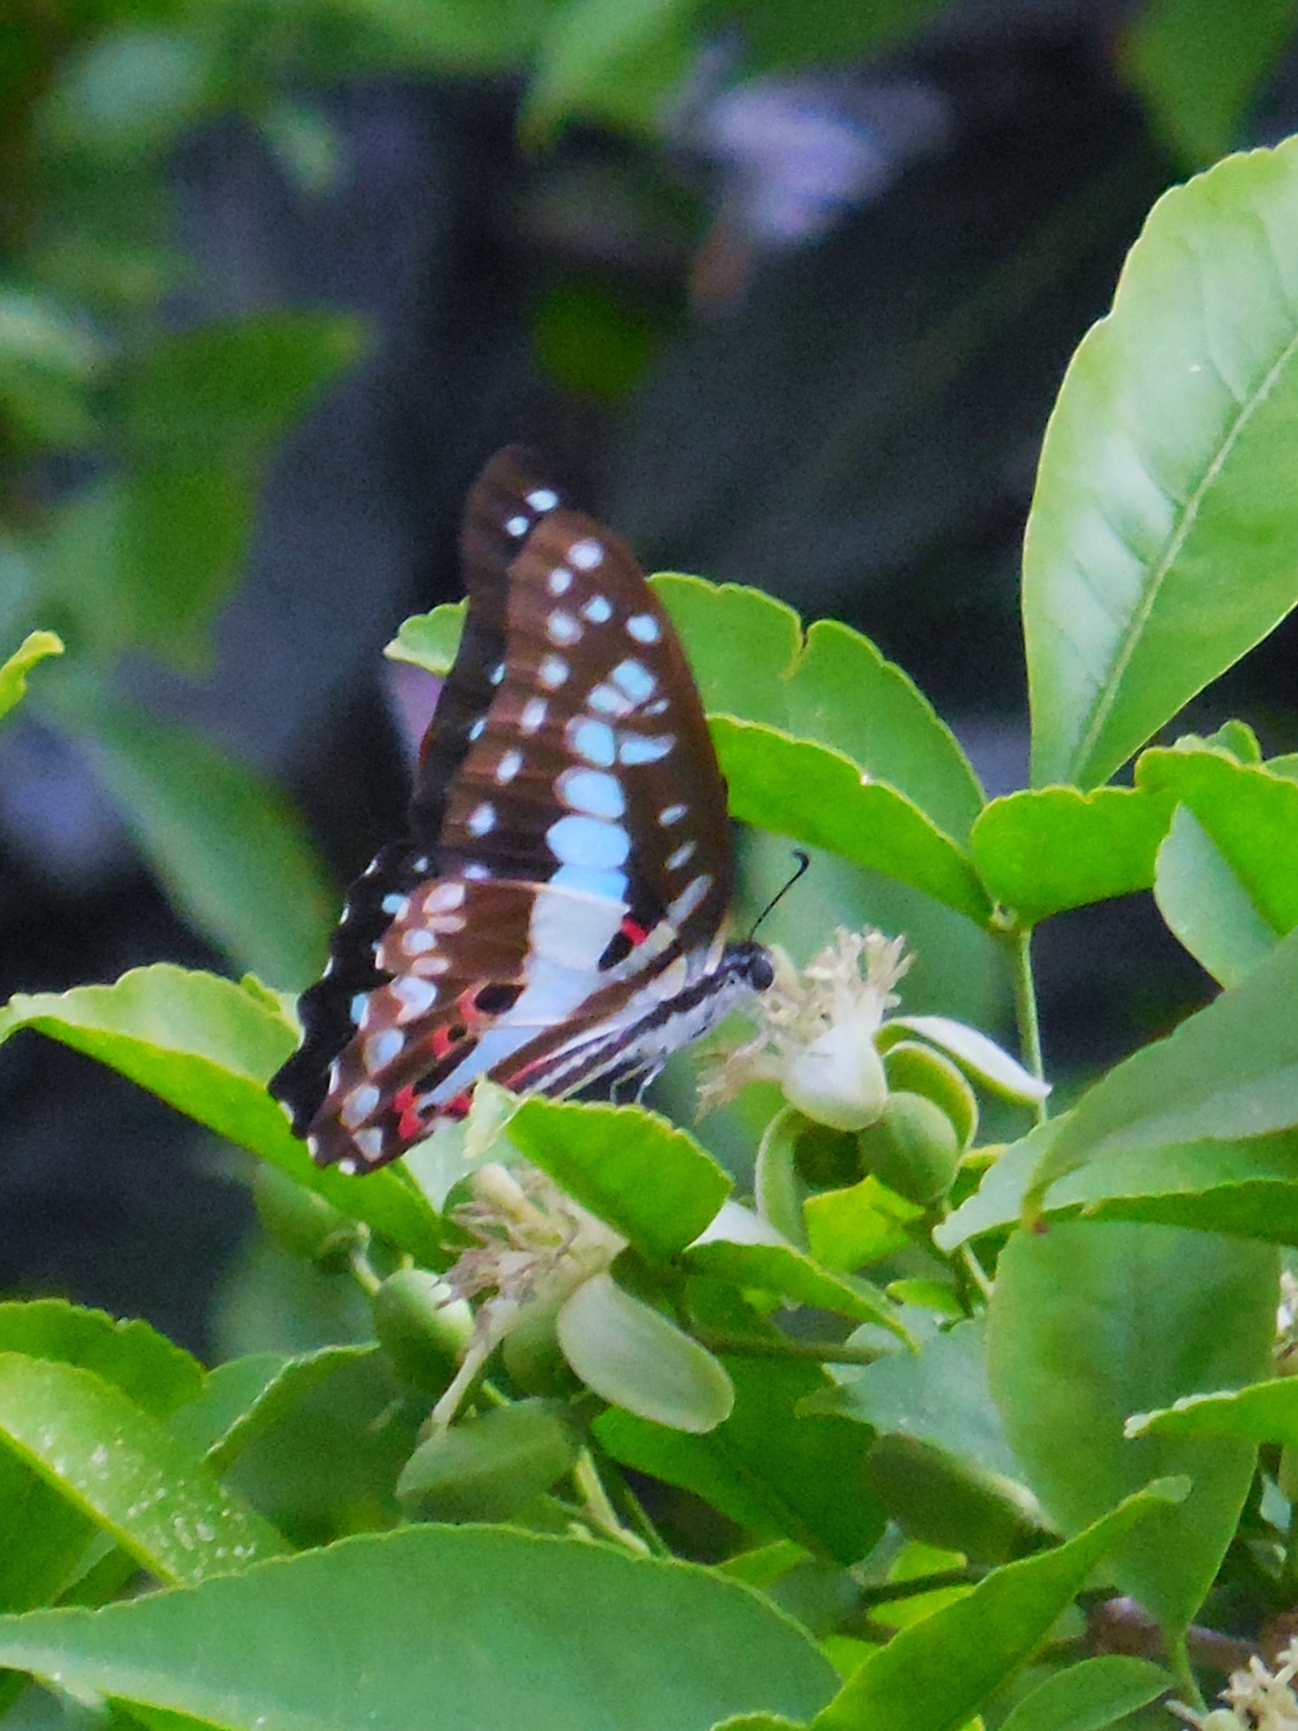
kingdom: Animalia
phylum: Arthropoda
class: Insecta
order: Lepidoptera
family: Papilionidae
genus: Graphium
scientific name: Graphium doson
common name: Common jay
